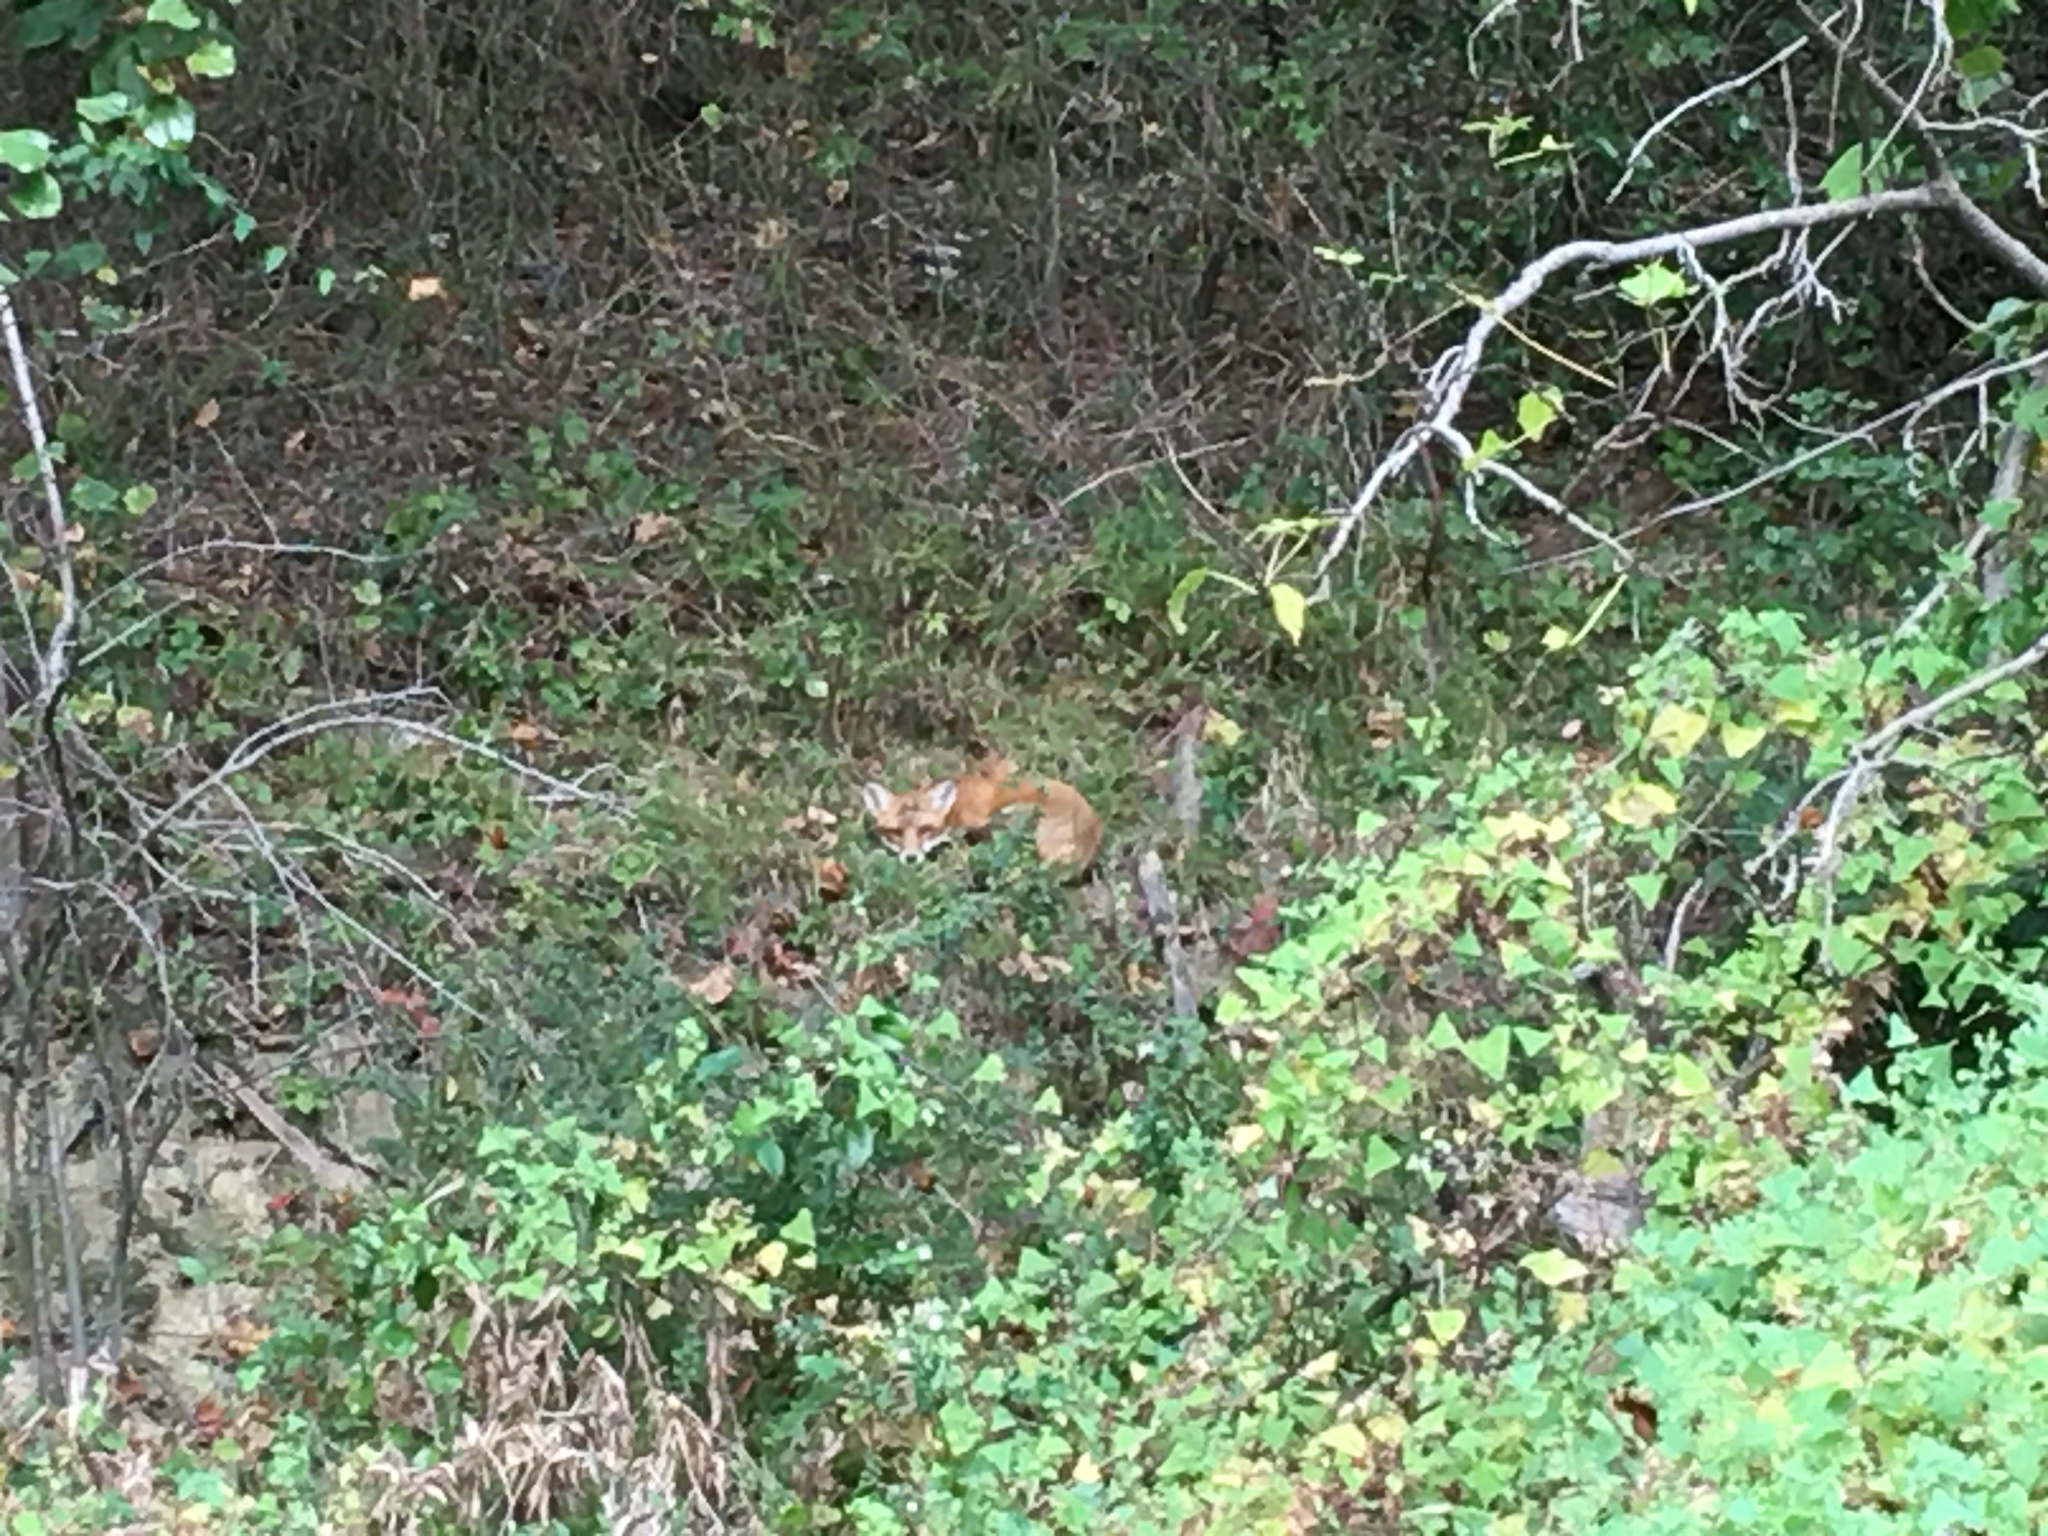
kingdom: Animalia
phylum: Chordata
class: Mammalia
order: Carnivora
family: Canidae
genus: Vulpes
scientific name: Vulpes vulpes
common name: Red fox
